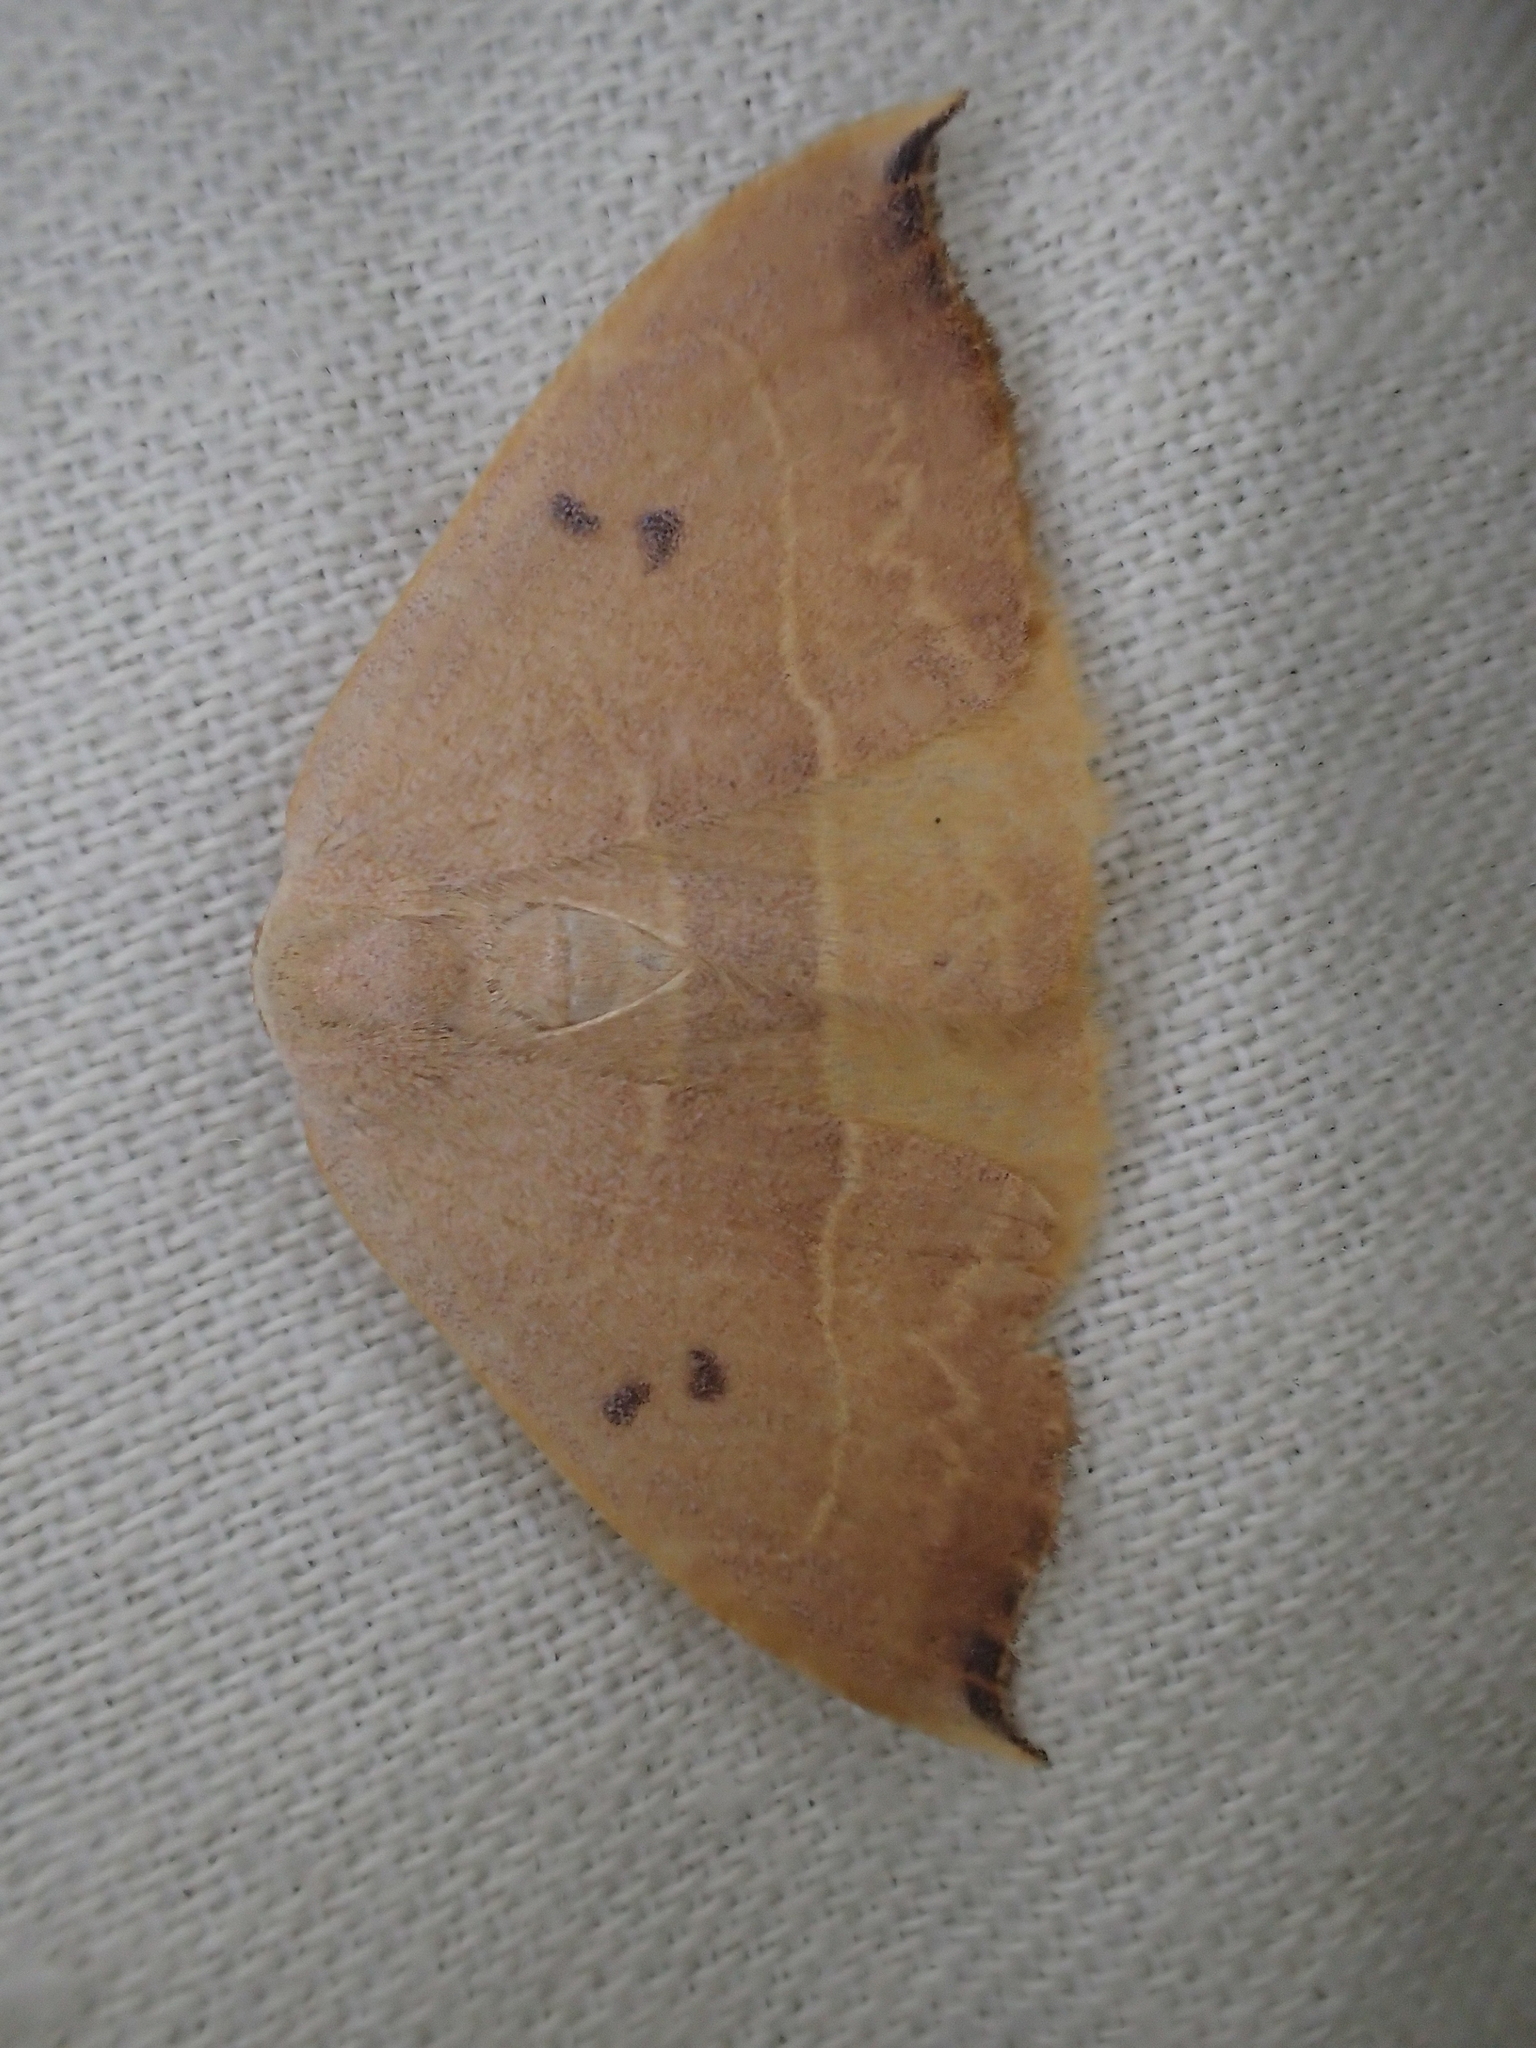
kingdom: Animalia
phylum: Arthropoda
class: Insecta
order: Lepidoptera
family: Drepanidae
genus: Watsonalla
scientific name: Watsonalla uncinula
